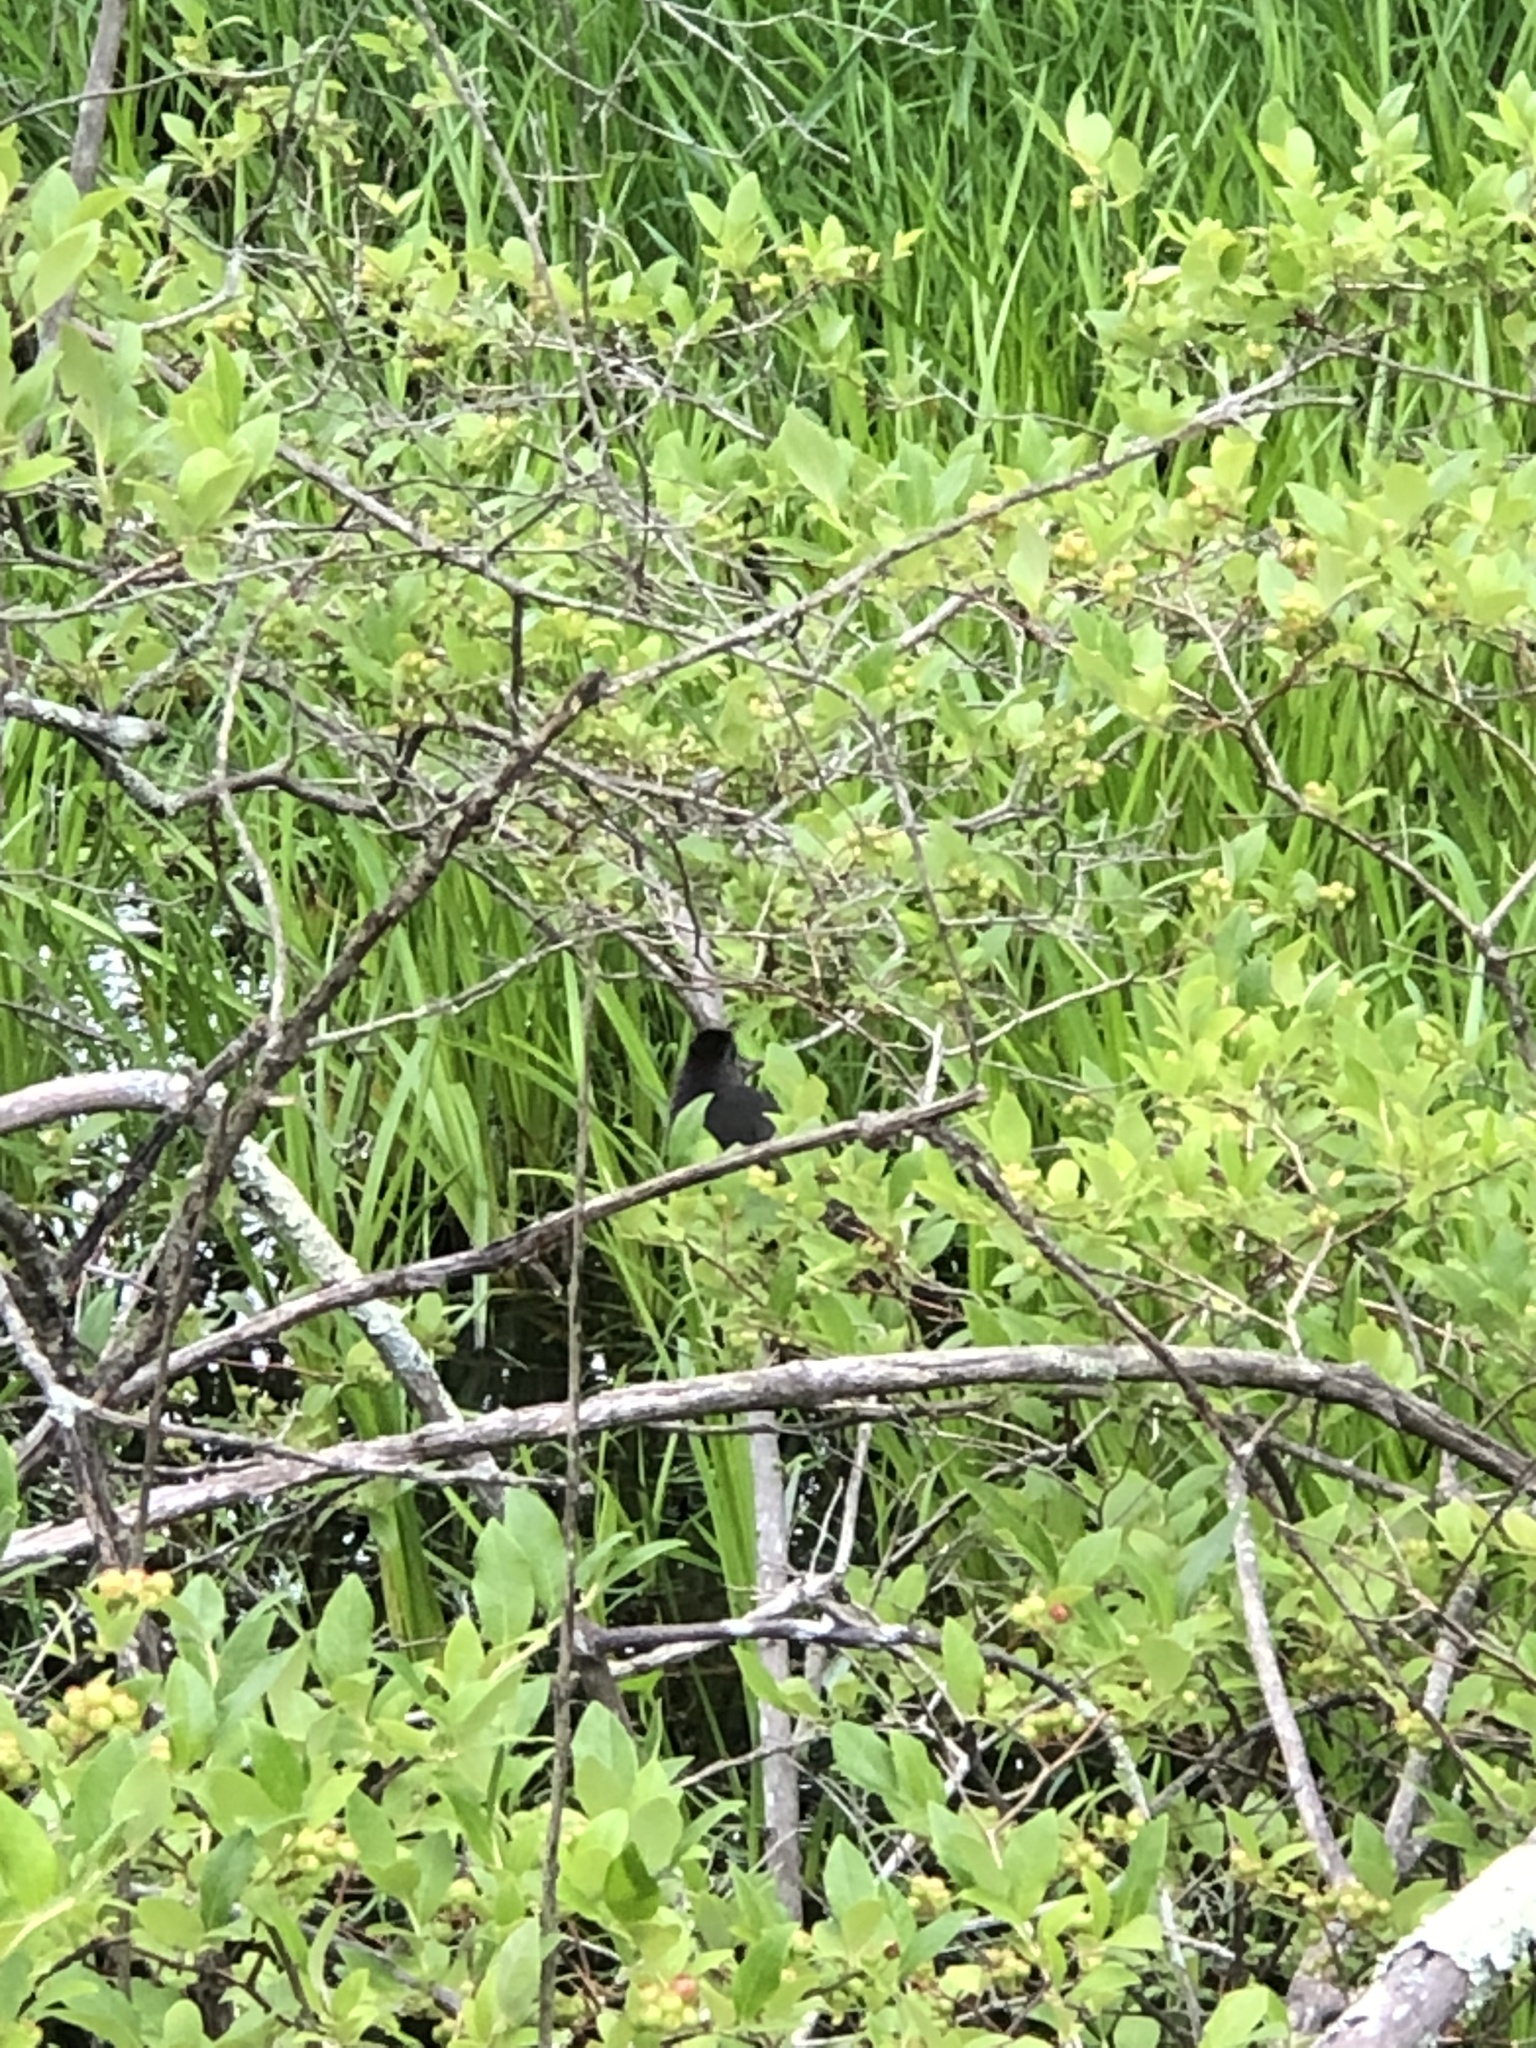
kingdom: Animalia
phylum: Chordata
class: Aves
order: Passeriformes
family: Mimidae
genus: Dumetella
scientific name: Dumetella carolinensis
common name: Gray catbird
